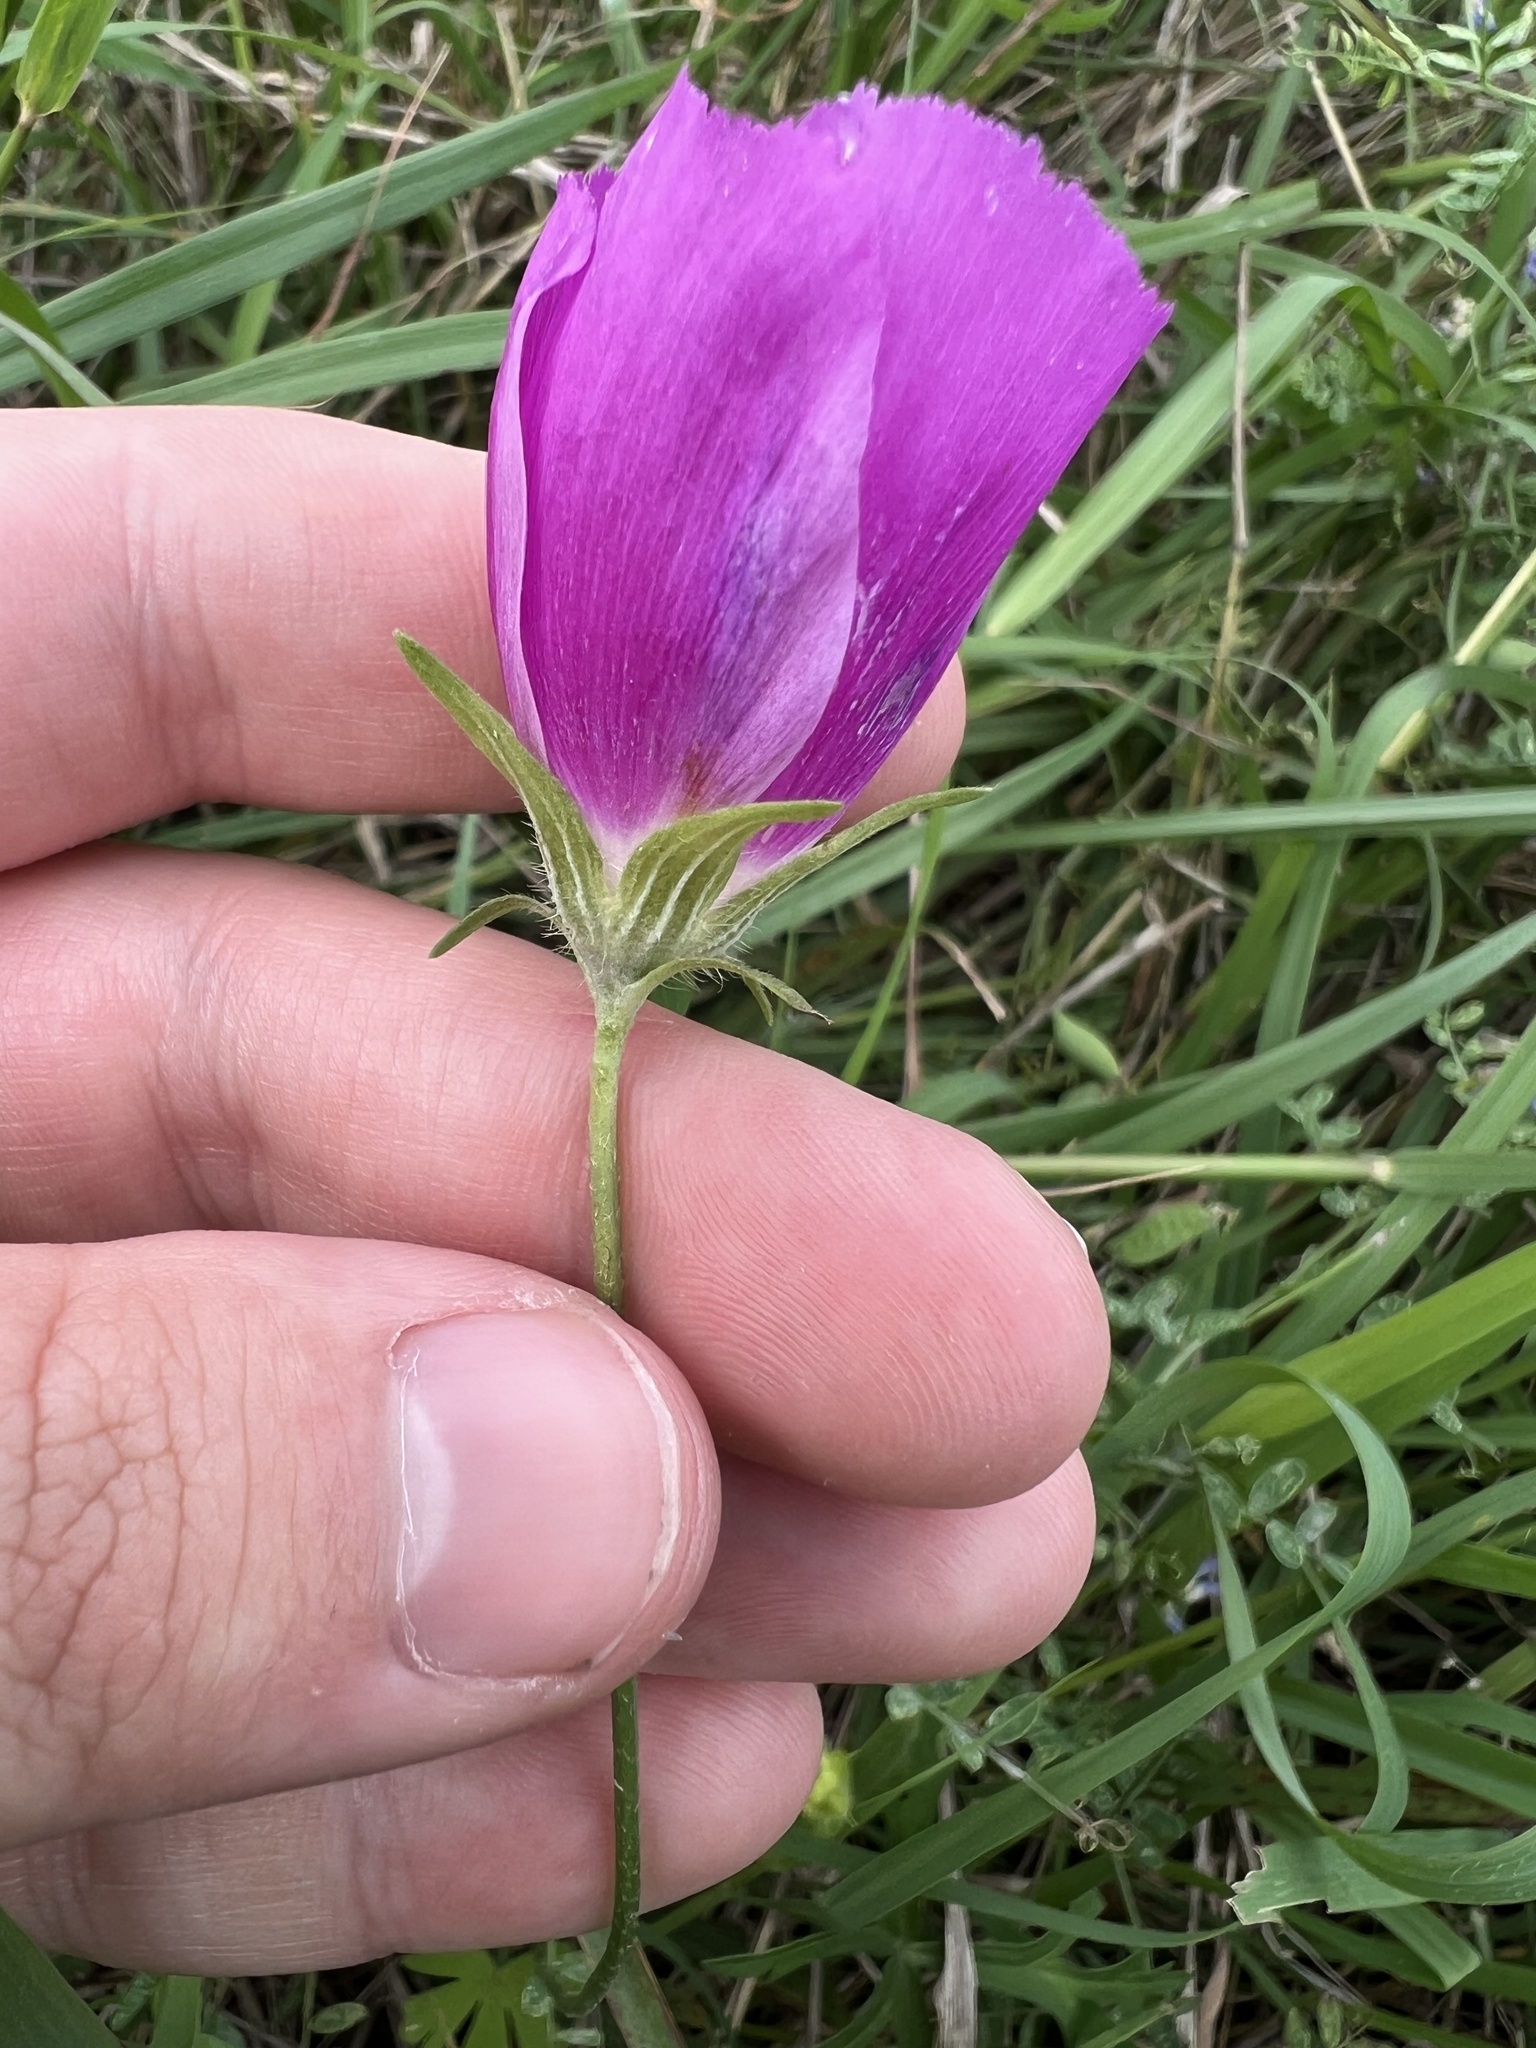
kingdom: Plantae
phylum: Tracheophyta
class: Magnoliopsida
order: Malvales
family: Malvaceae
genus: Callirhoe
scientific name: Callirhoe involucrata
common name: Purple poppy-mallow
